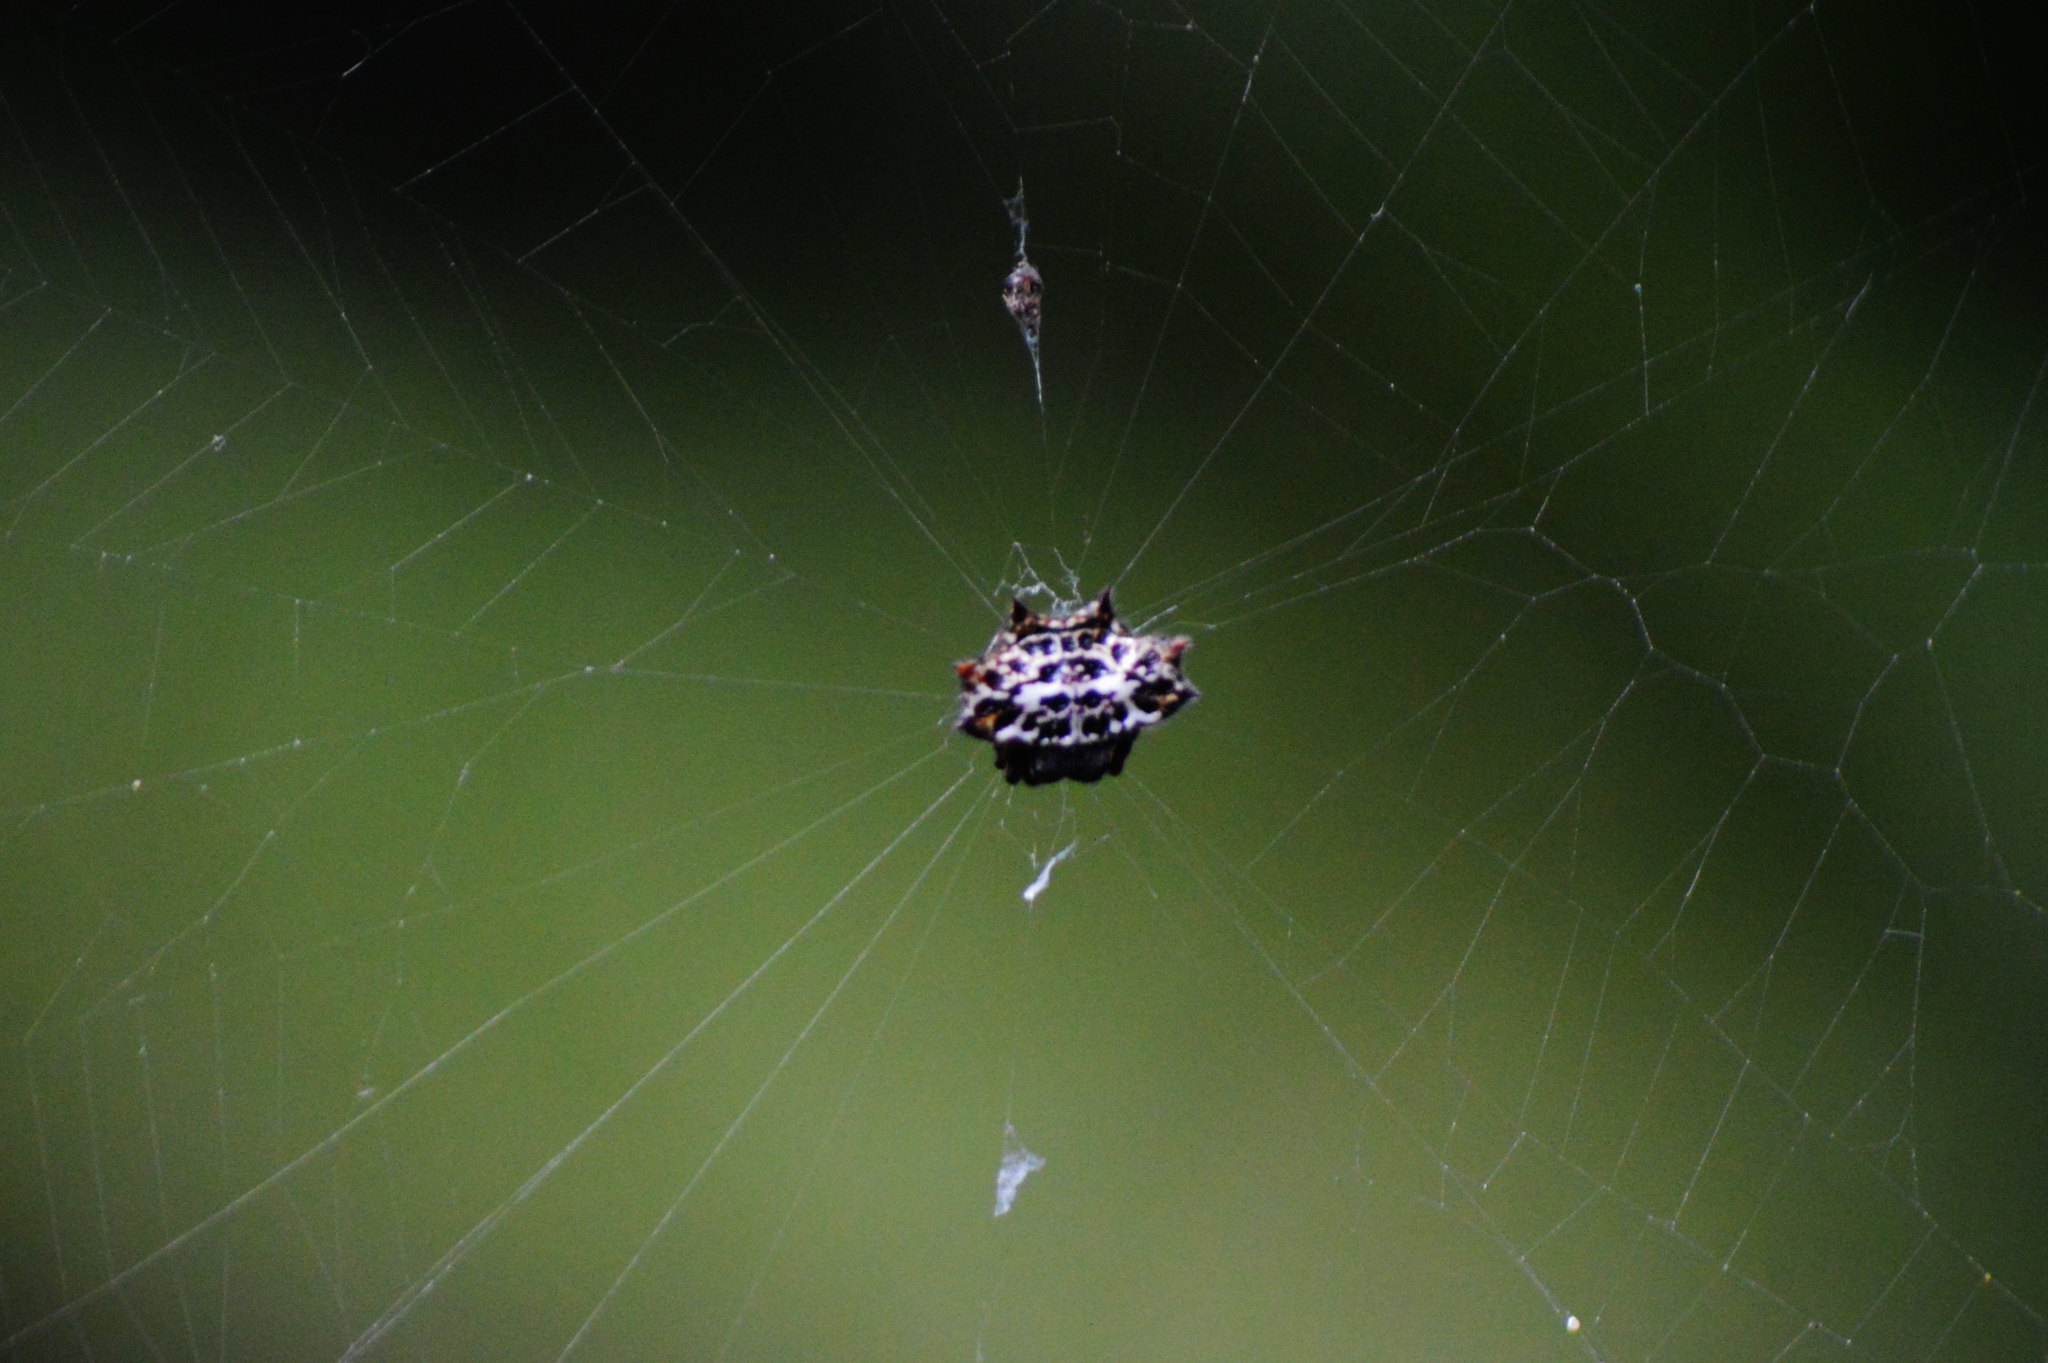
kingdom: Animalia
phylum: Arthropoda
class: Arachnida
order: Araneae
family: Araneidae
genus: Gasteracantha
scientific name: Gasteracantha cancriformis
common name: Orb weavers
